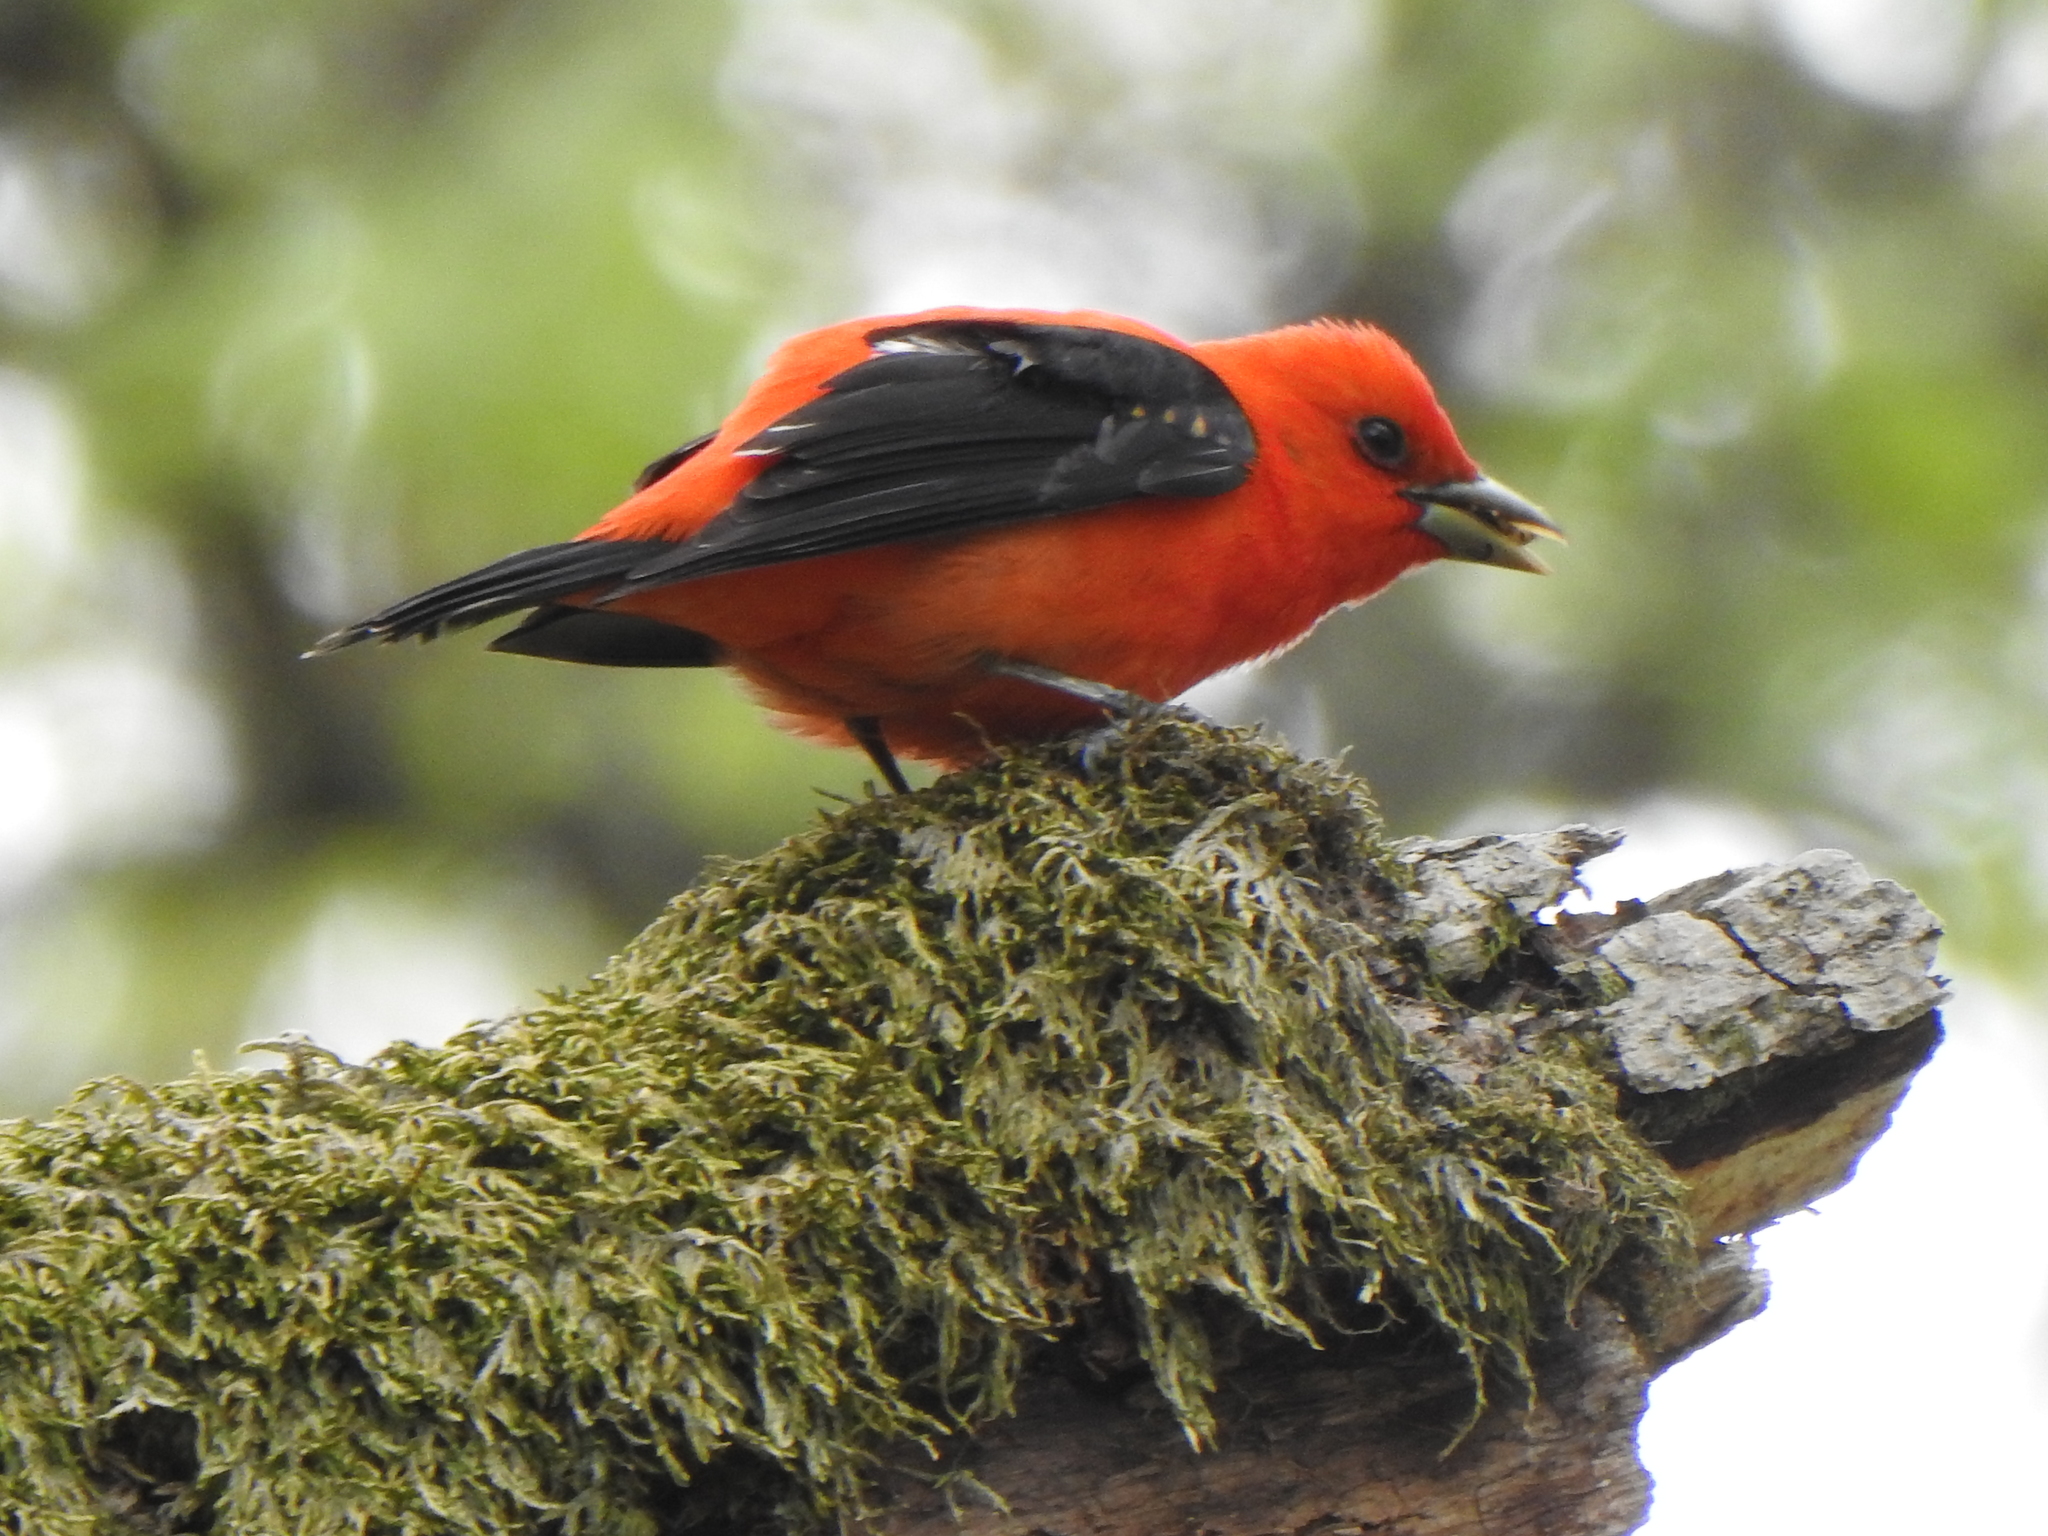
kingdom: Animalia
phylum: Chordata
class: Aves
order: Passeriformes
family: Cardinalidae
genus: Piranga
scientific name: Piranga olivacea
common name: Scarlet tanager
